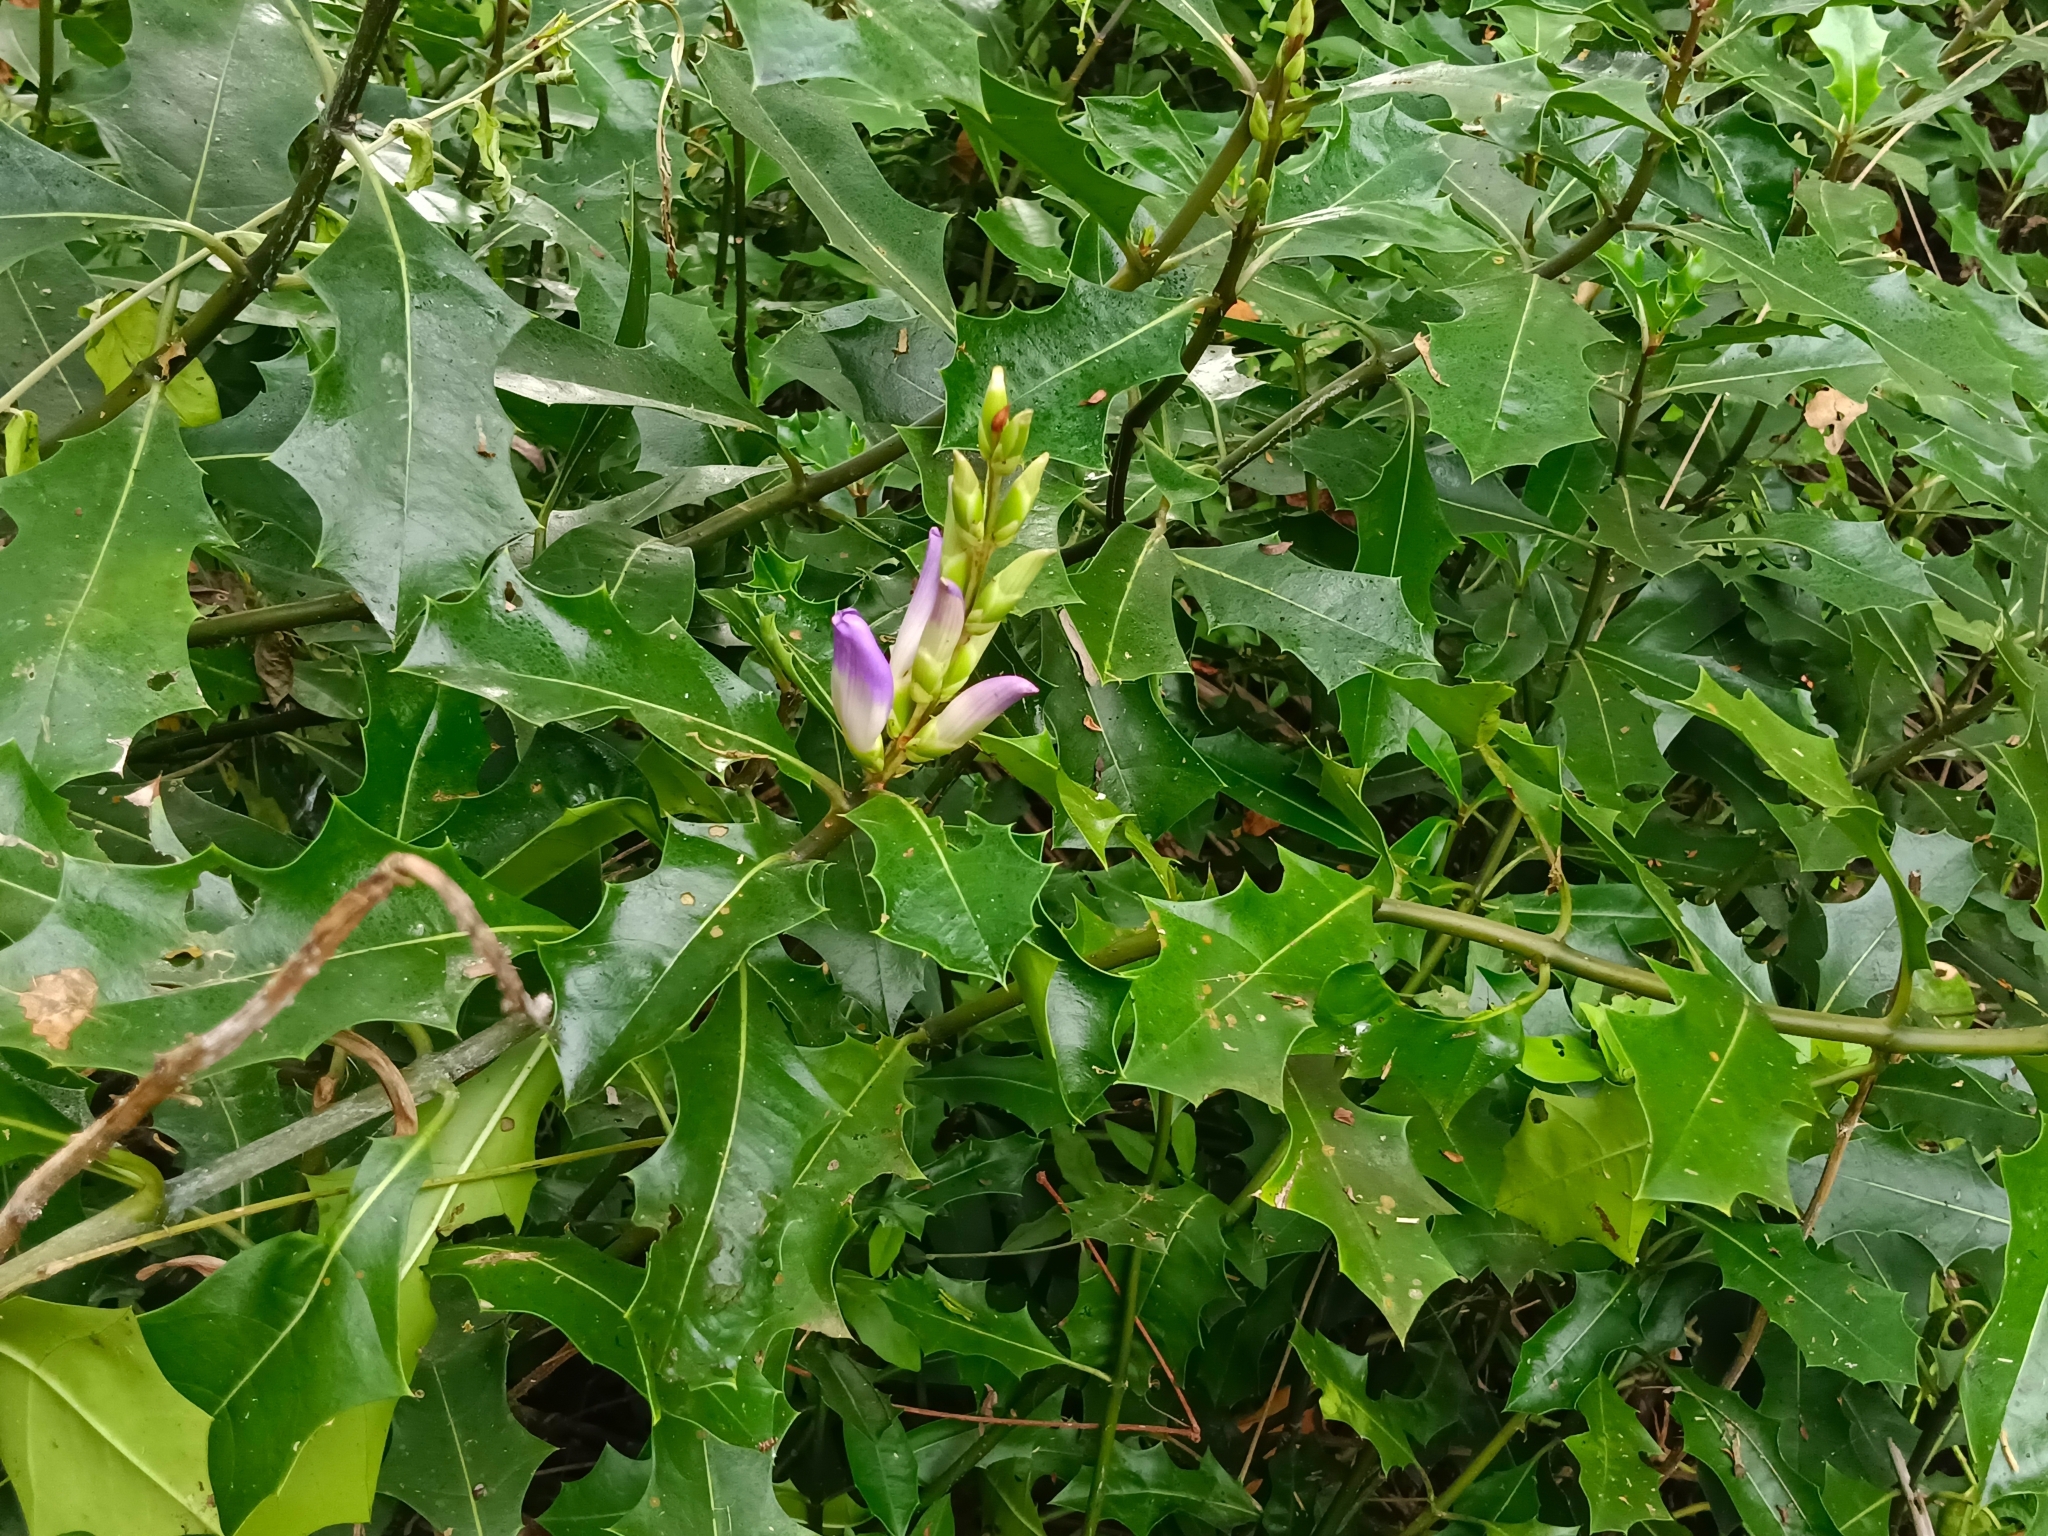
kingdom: Plantae
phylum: Tracheophyta
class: Magnoliopsida
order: Lamiales
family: Acanthaceae
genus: Acanthus
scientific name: Acanthus ilicifolius
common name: Holy mangrove
